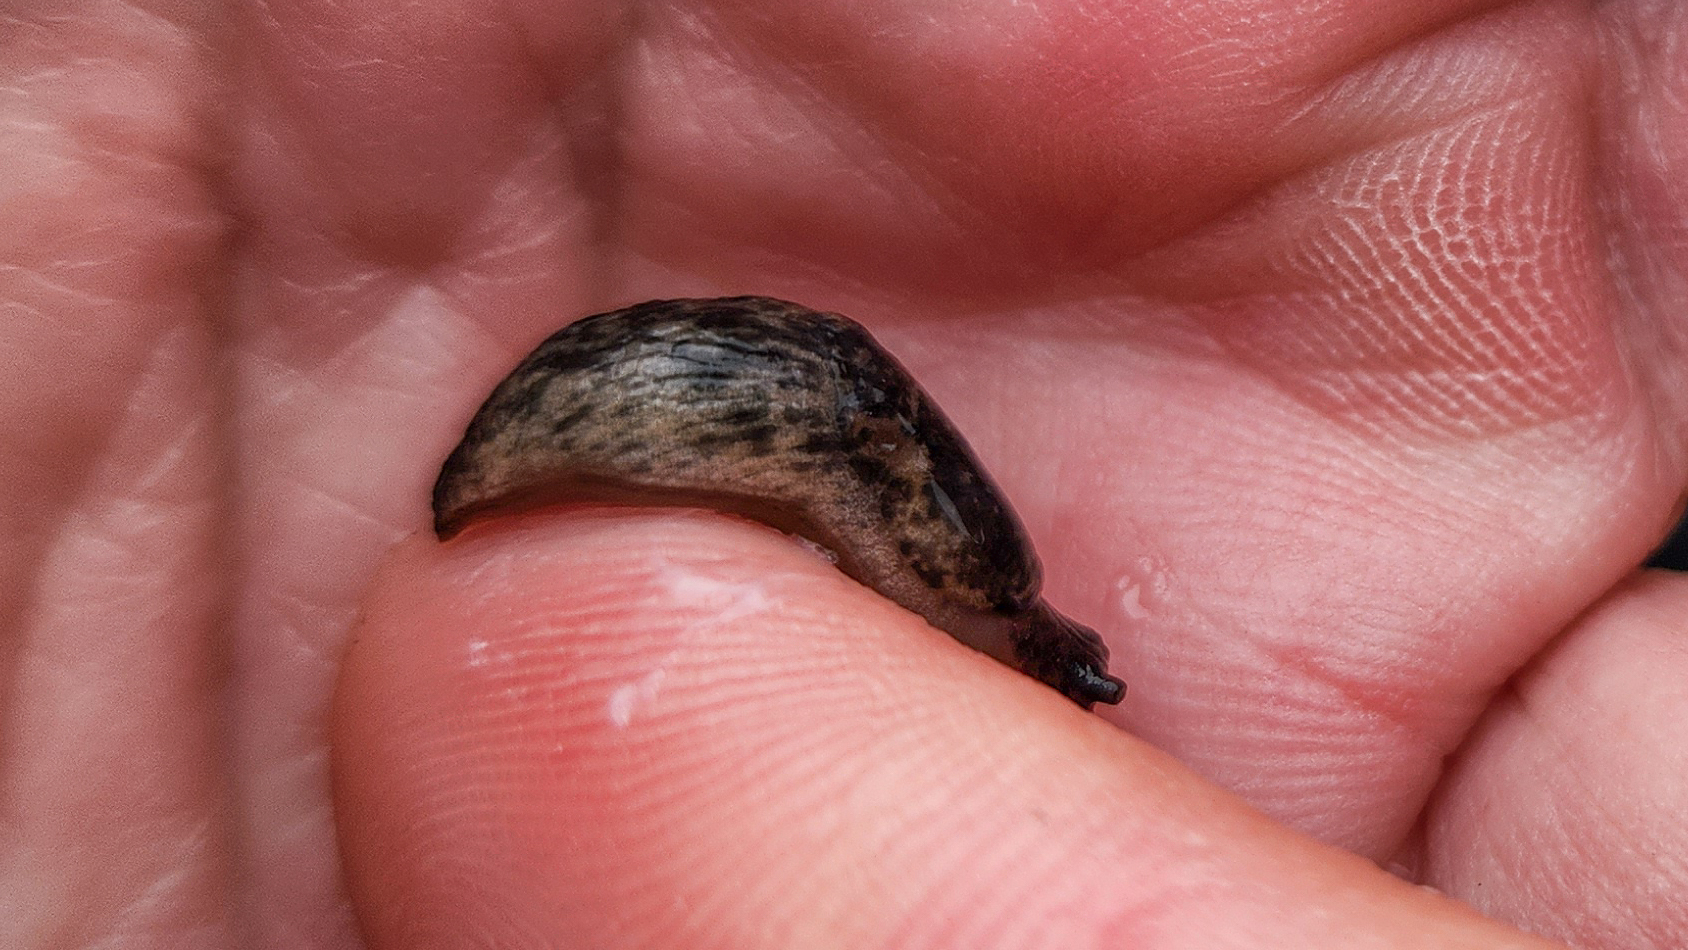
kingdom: Animalia
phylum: Mollusca
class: Gastropoda
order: Stylommatophora
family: Agriolimacidae
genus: Deroceras
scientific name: Deroceras reticulatum
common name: Gray field slug
